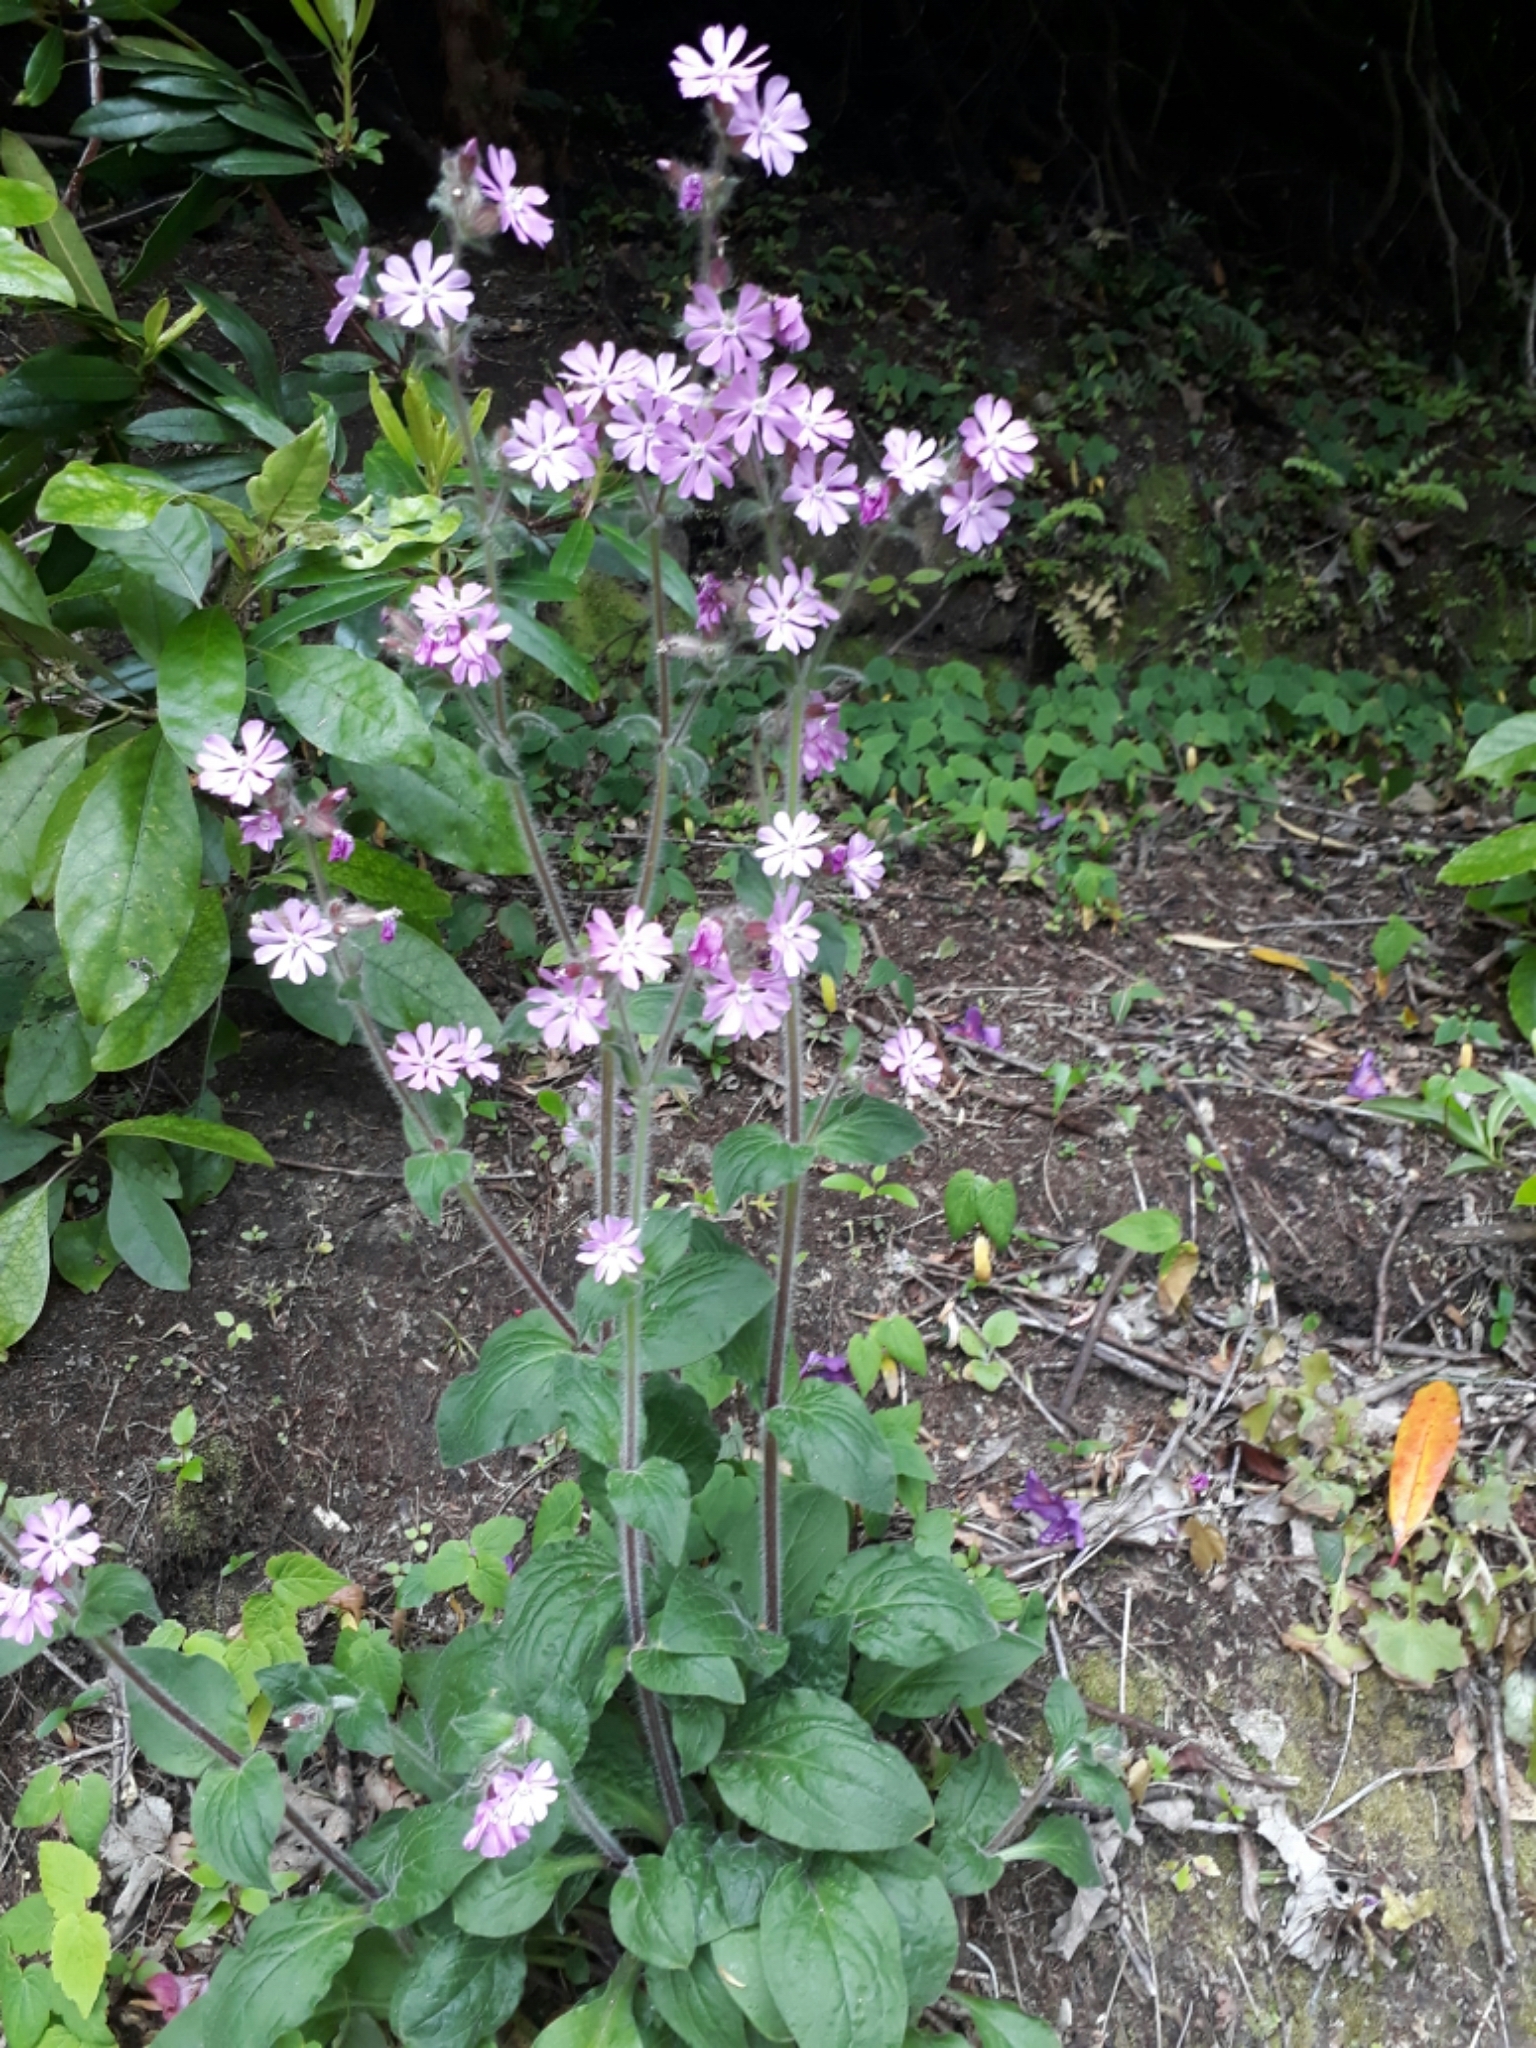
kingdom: Plantae
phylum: Tracheophyta
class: Magnoliopsida
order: Caryophyllales
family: Caryophyllaceae
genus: Silene
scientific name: Silene dioica
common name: Red campion
